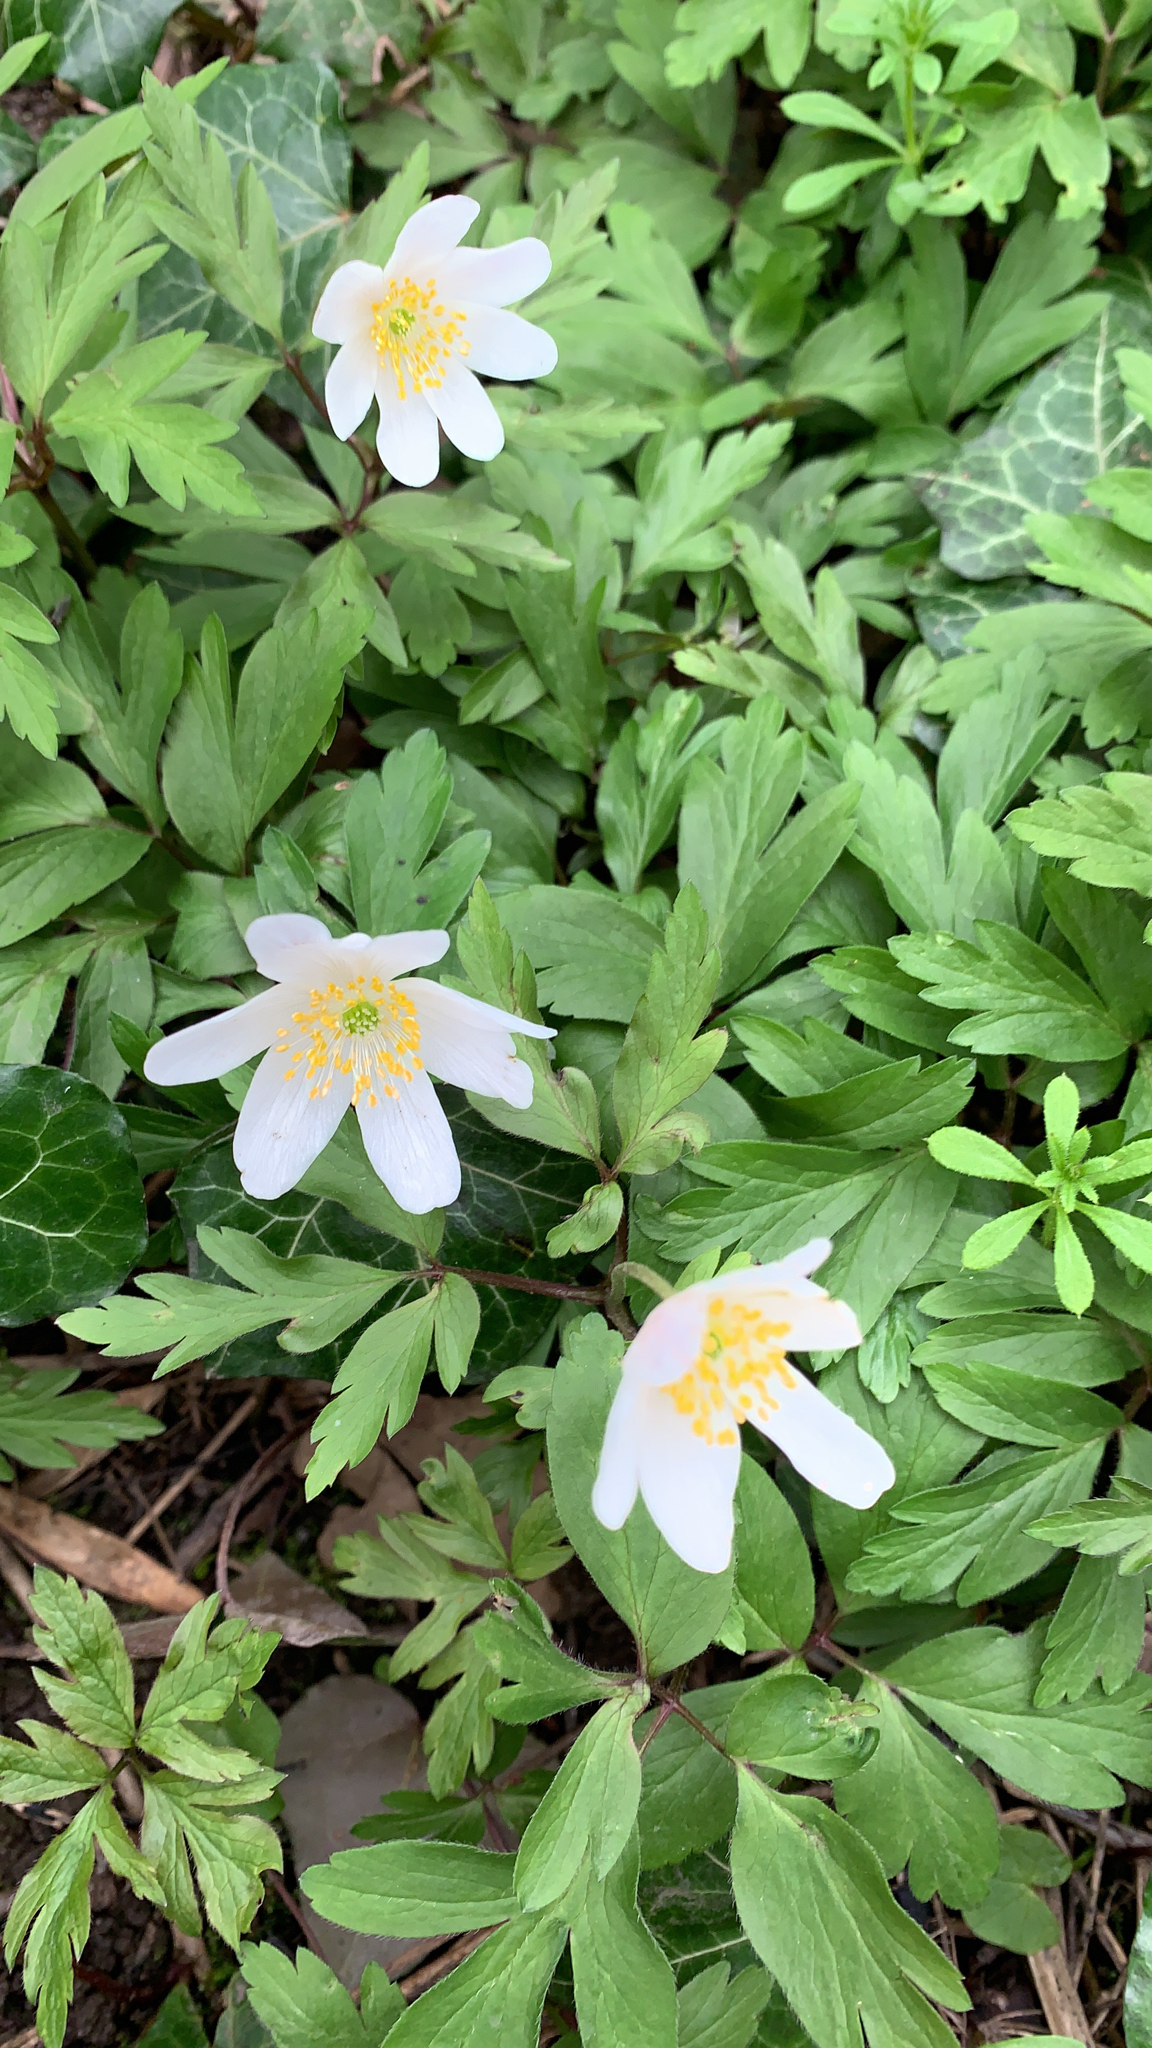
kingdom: Plantae
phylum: Tracheophyta
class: Magnoliopsida
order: Ranunculales
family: Ranunculaceae
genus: Anemone
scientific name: Anemone nemorosa
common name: Wood anemone
